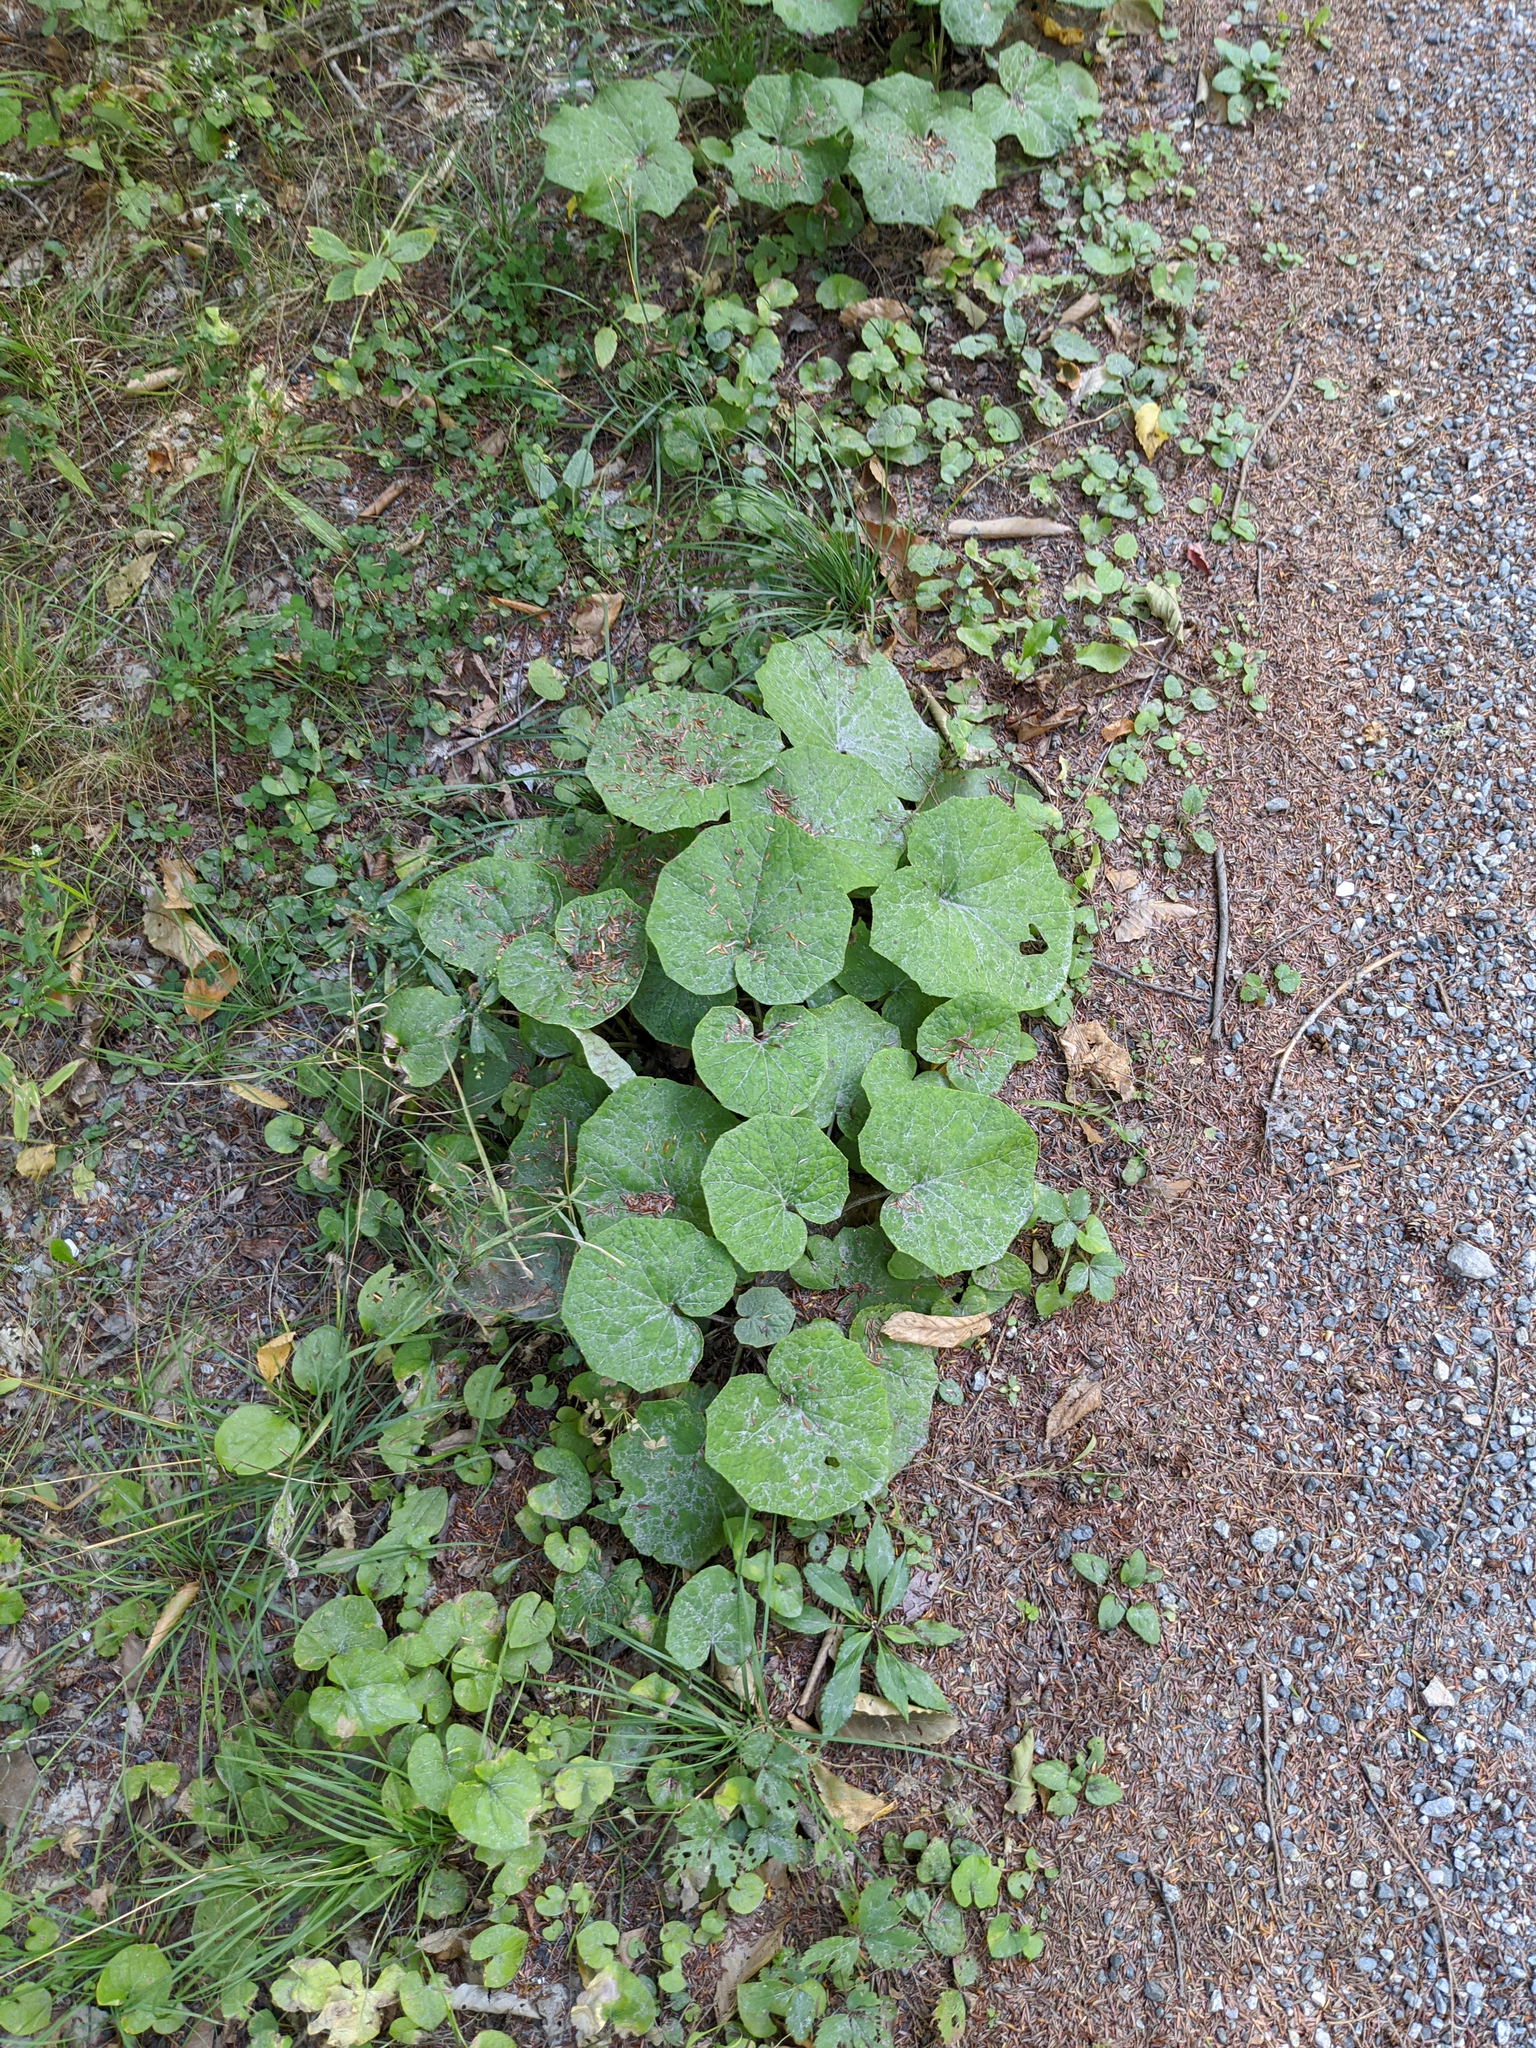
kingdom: Plantae
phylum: Tracheophyta
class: Magnoliopsida
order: Asterales
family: Asteraceae
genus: Tussilago
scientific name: Tussilago farfara
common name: Coltsfoot
